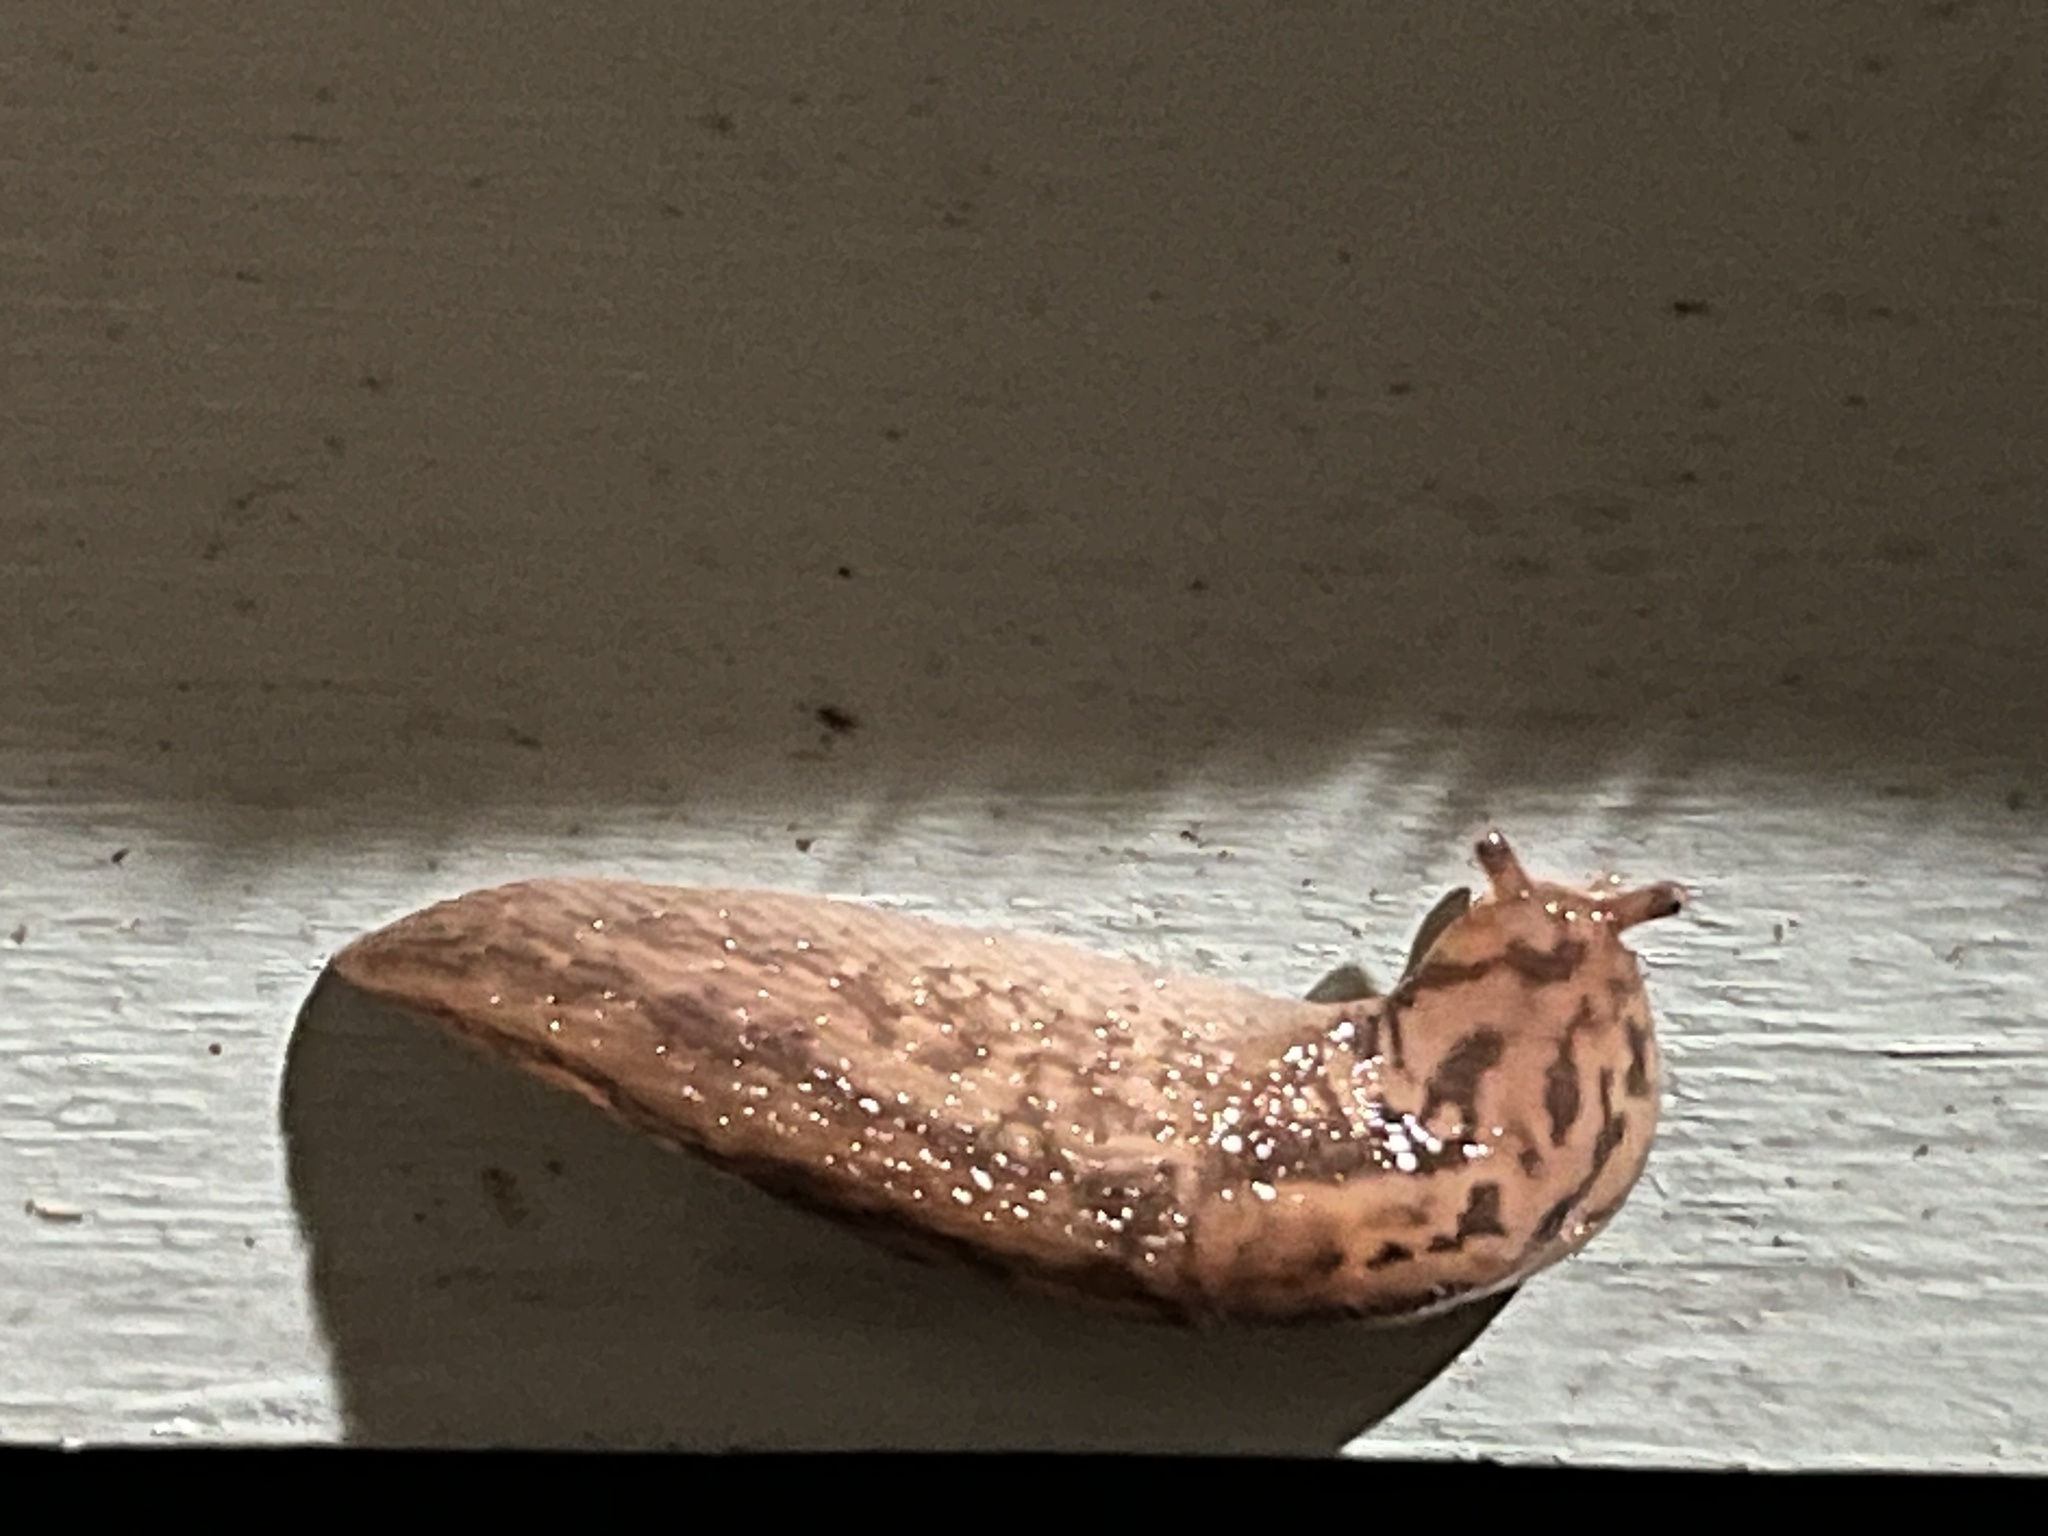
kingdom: Animalia
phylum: Mollusca
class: Gastropoda
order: Stylommatophora
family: Limacidae
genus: Limax
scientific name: Limax maximus
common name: Great grey slug
